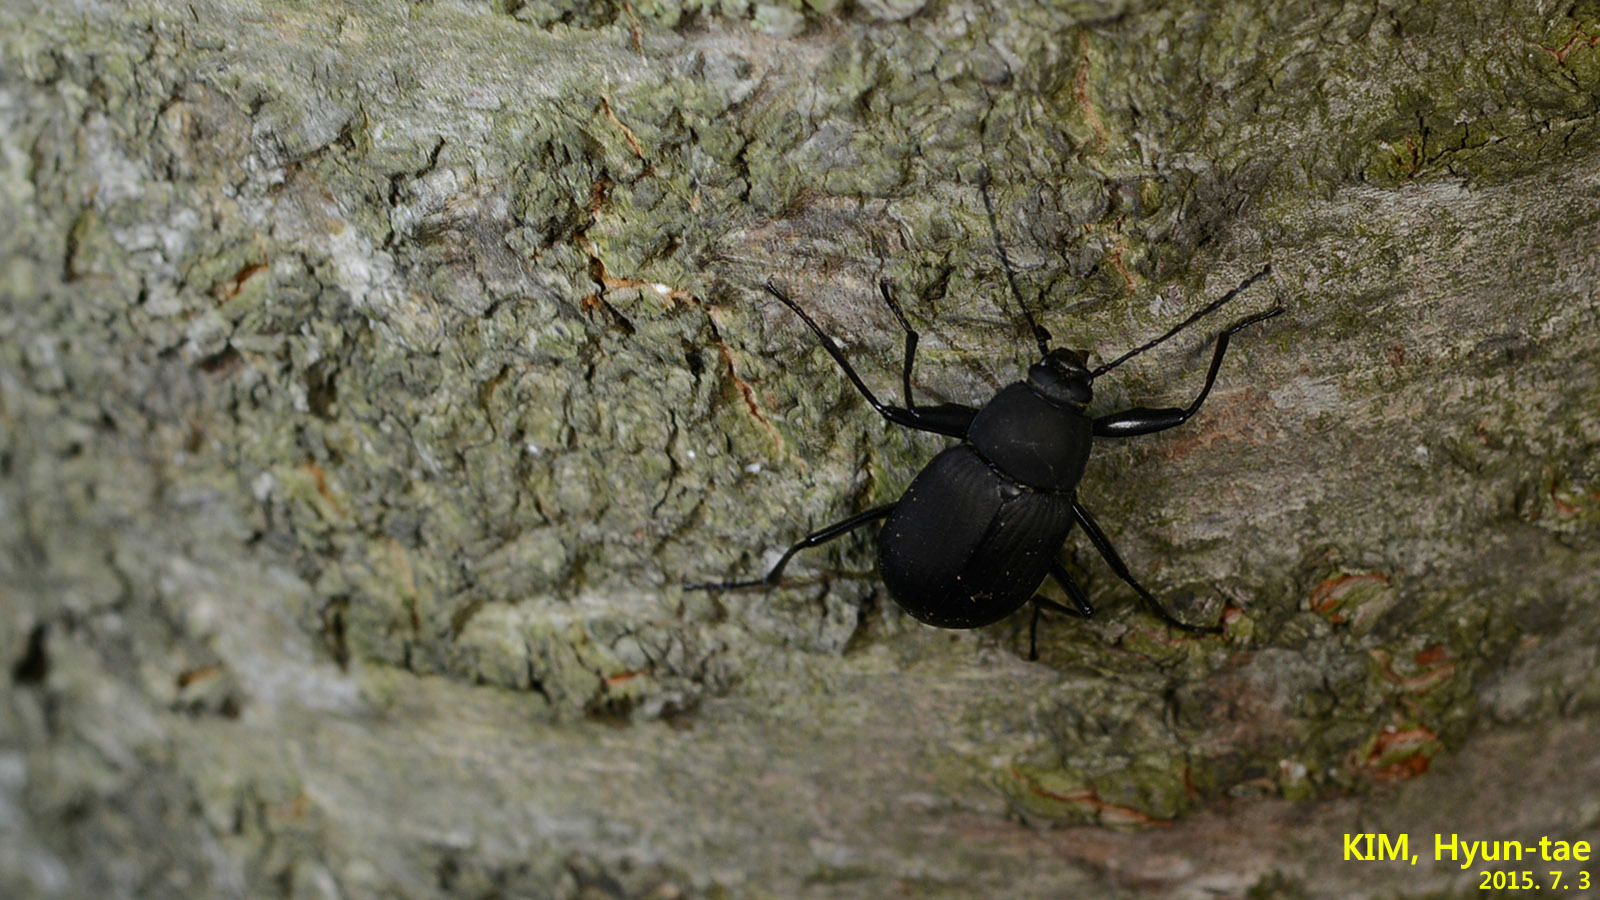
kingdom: Animalia
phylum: Arthropoda
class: Insecta
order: Coleoptera
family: Tenebrionidae
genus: Plesiophthalmus
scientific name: Plesiophthalmus
